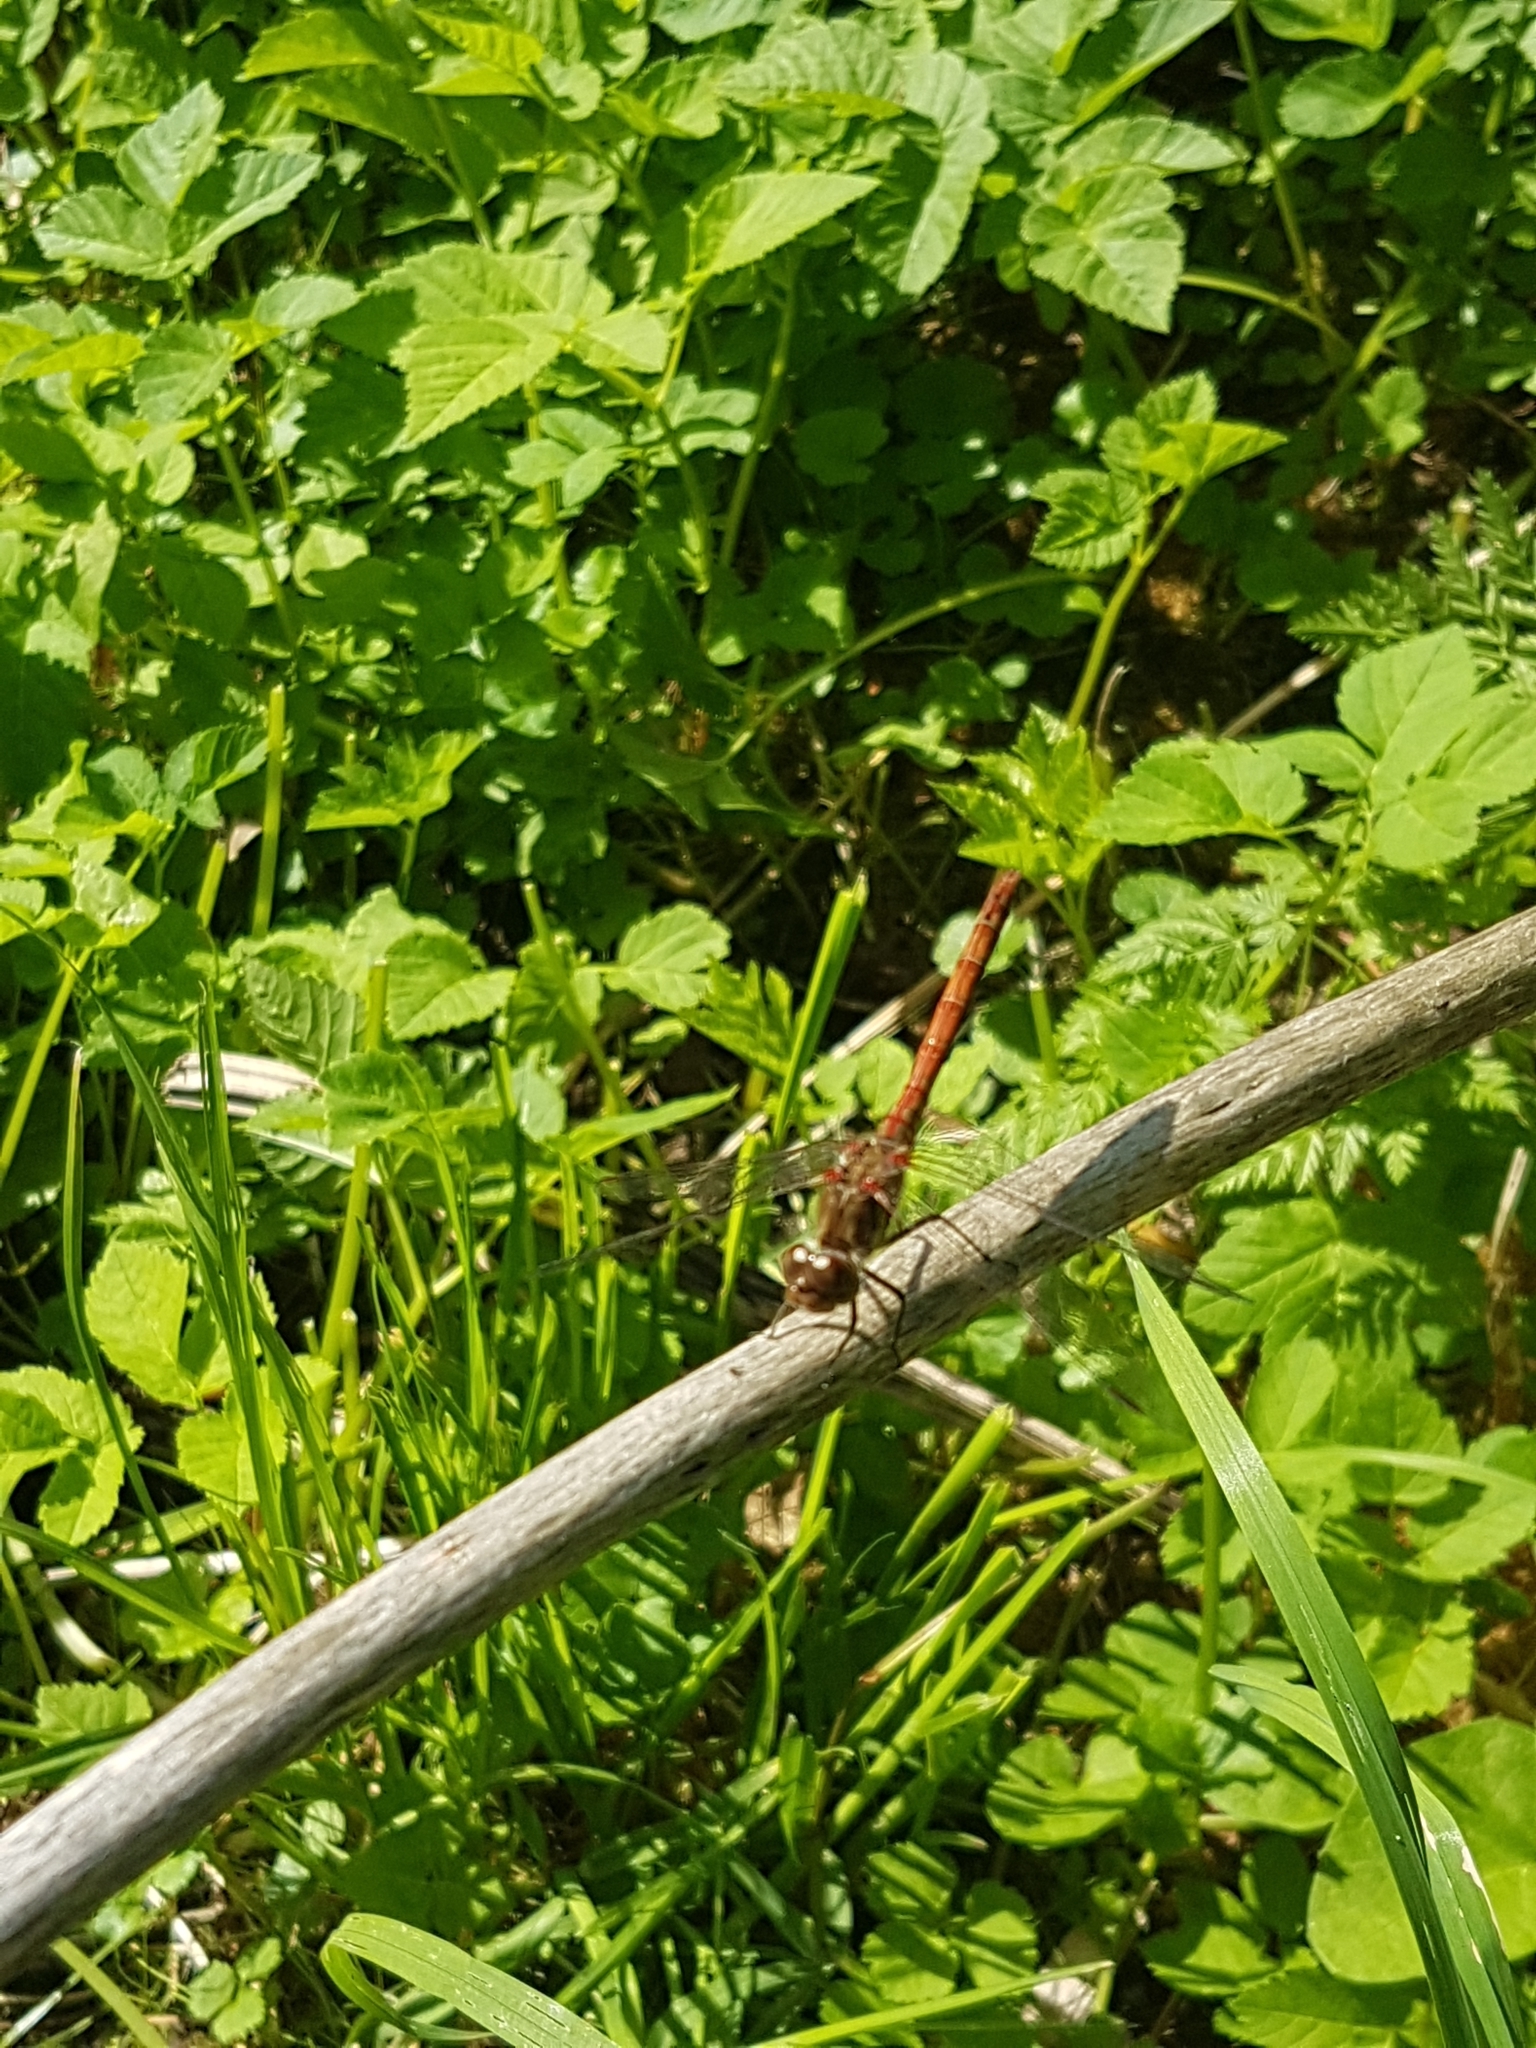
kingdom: Animalia
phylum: Arthropoda
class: Insecta
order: Odonata
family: Libellulidae
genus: Sympetrum
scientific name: Sympetrum striolatum
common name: Common darter
